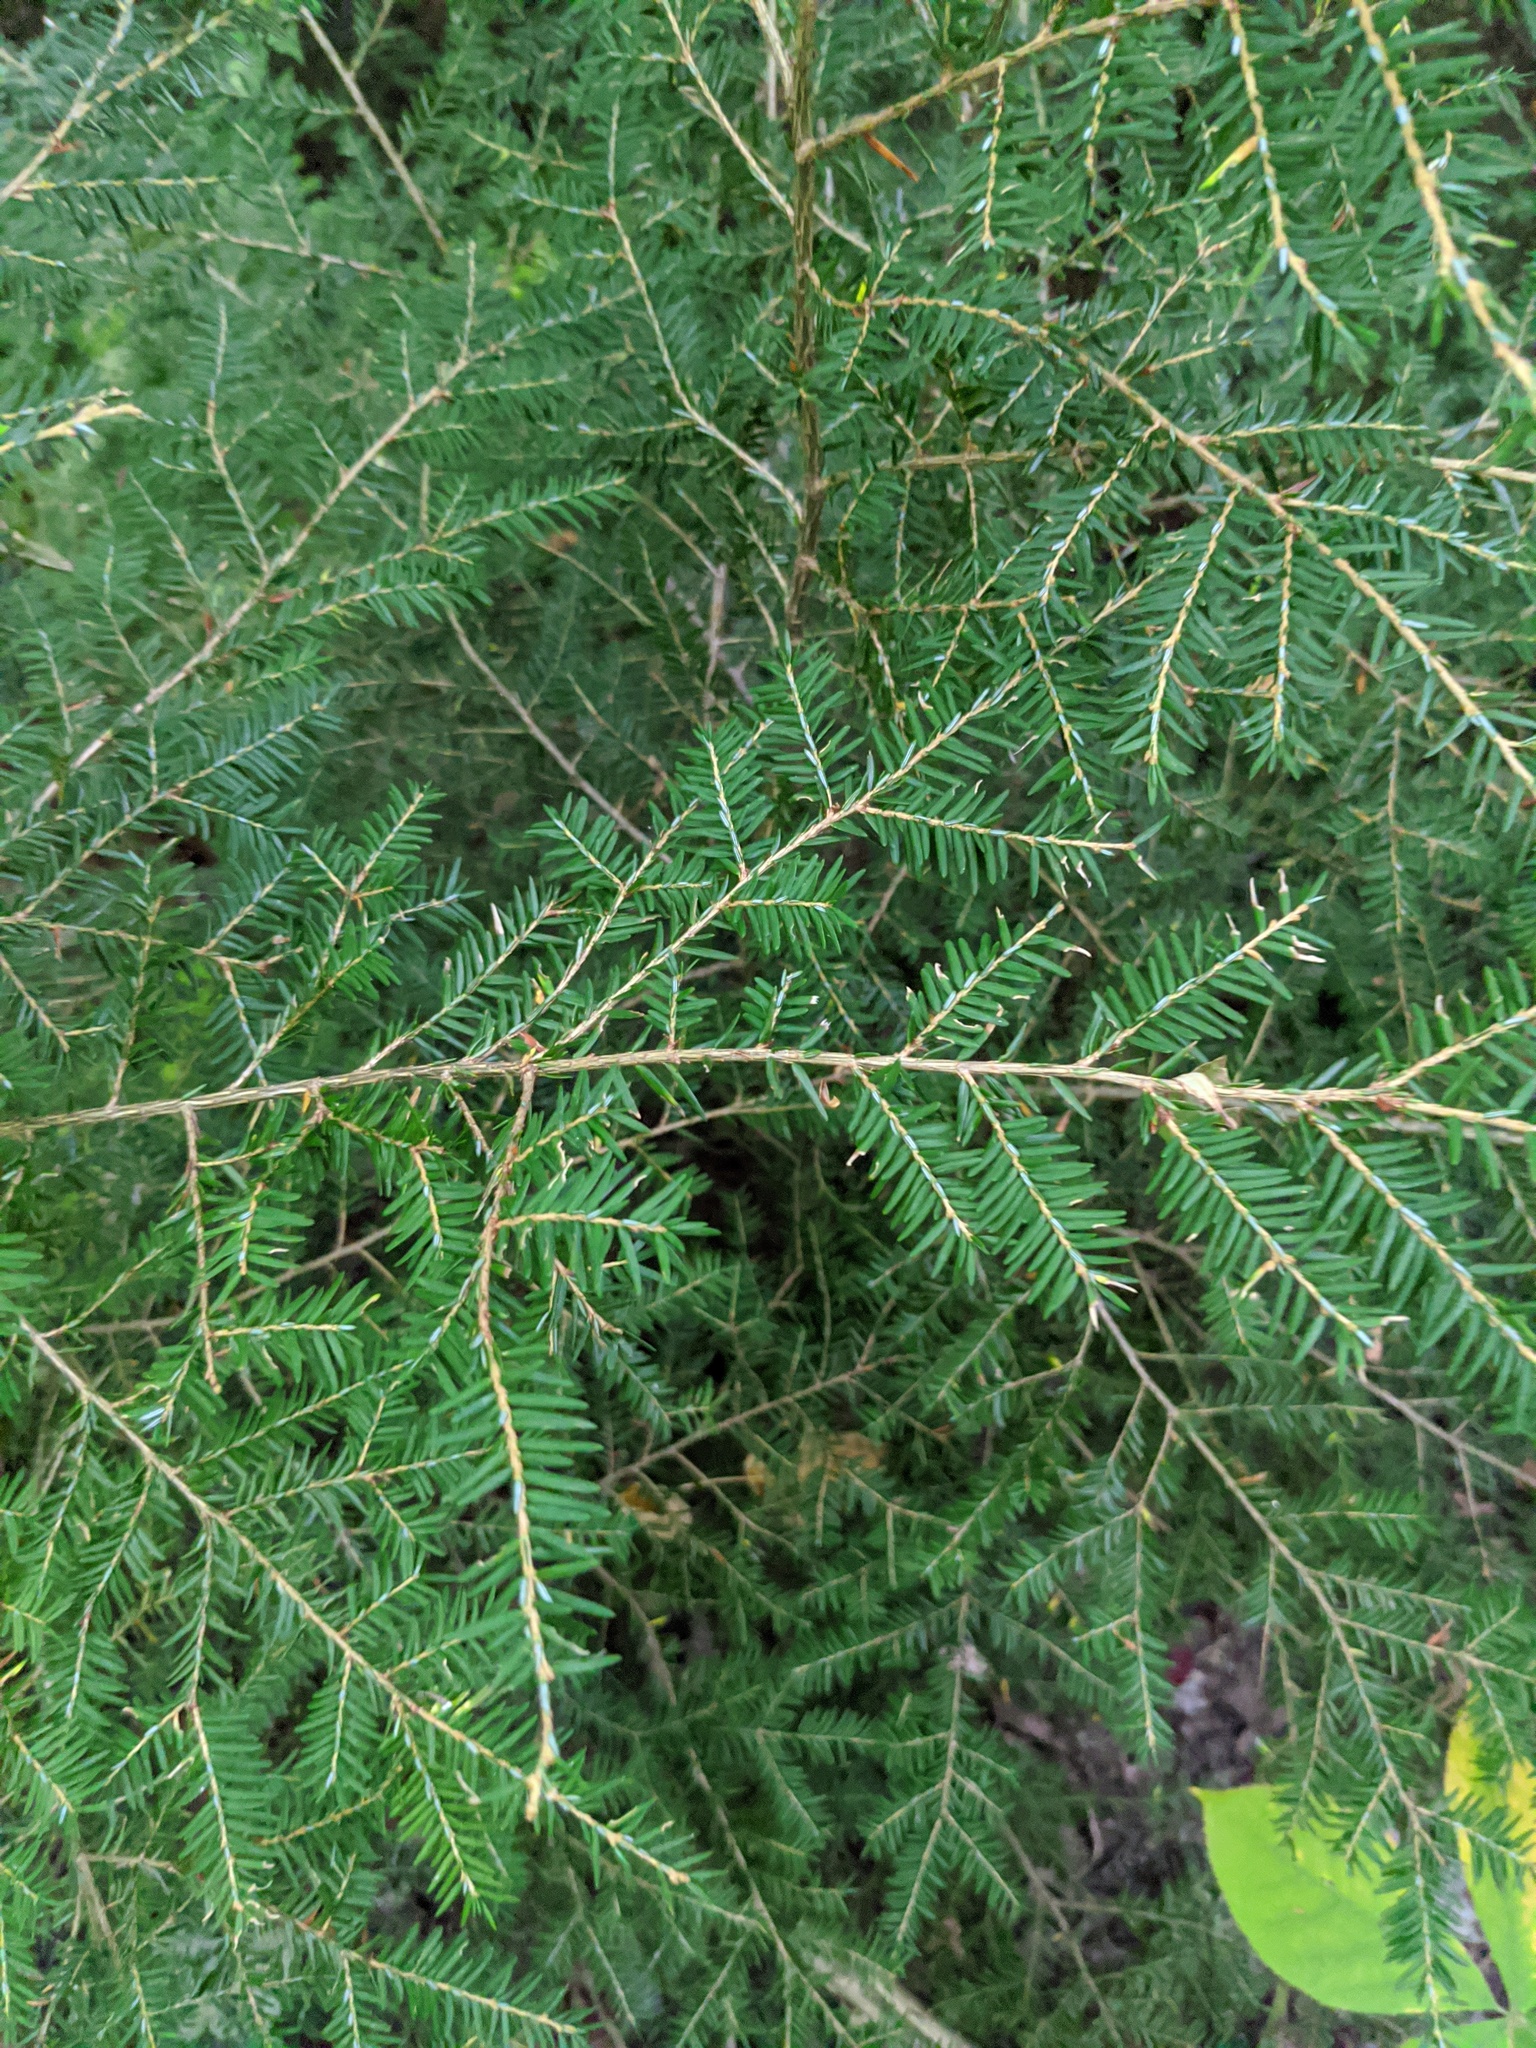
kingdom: Plantae
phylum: Tracheophyta
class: Pinopsida
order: Pinales
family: Pinaceae
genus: Tsuga
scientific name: Tsuga canadensis
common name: Eastern hemlock
